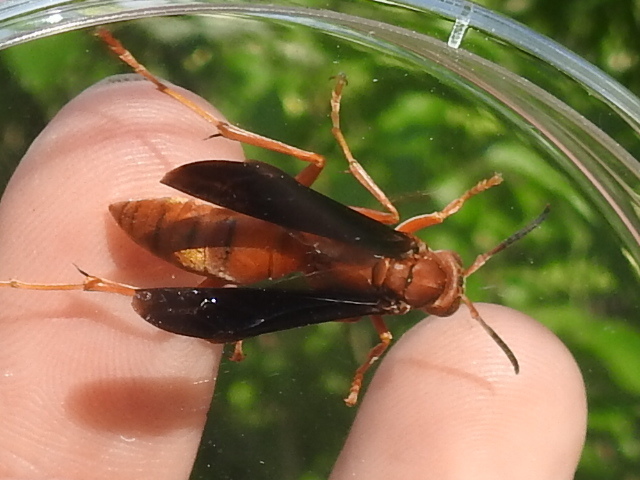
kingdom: Animalia
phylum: Arthropoda
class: Insecta
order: Hymenoptera
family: Eumenidae
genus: Polistes
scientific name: Polistes
